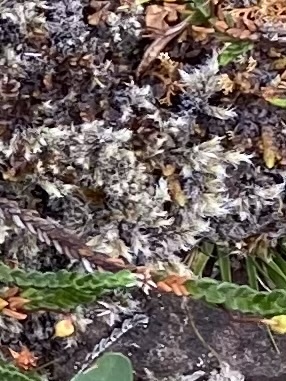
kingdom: Plantae
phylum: Bryophyta
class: Bryopsida
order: Grimmiales
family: Grimmiaceae
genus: Racomitrium
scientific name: Racomitrium lanuginosum
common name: Hoary rock moss
